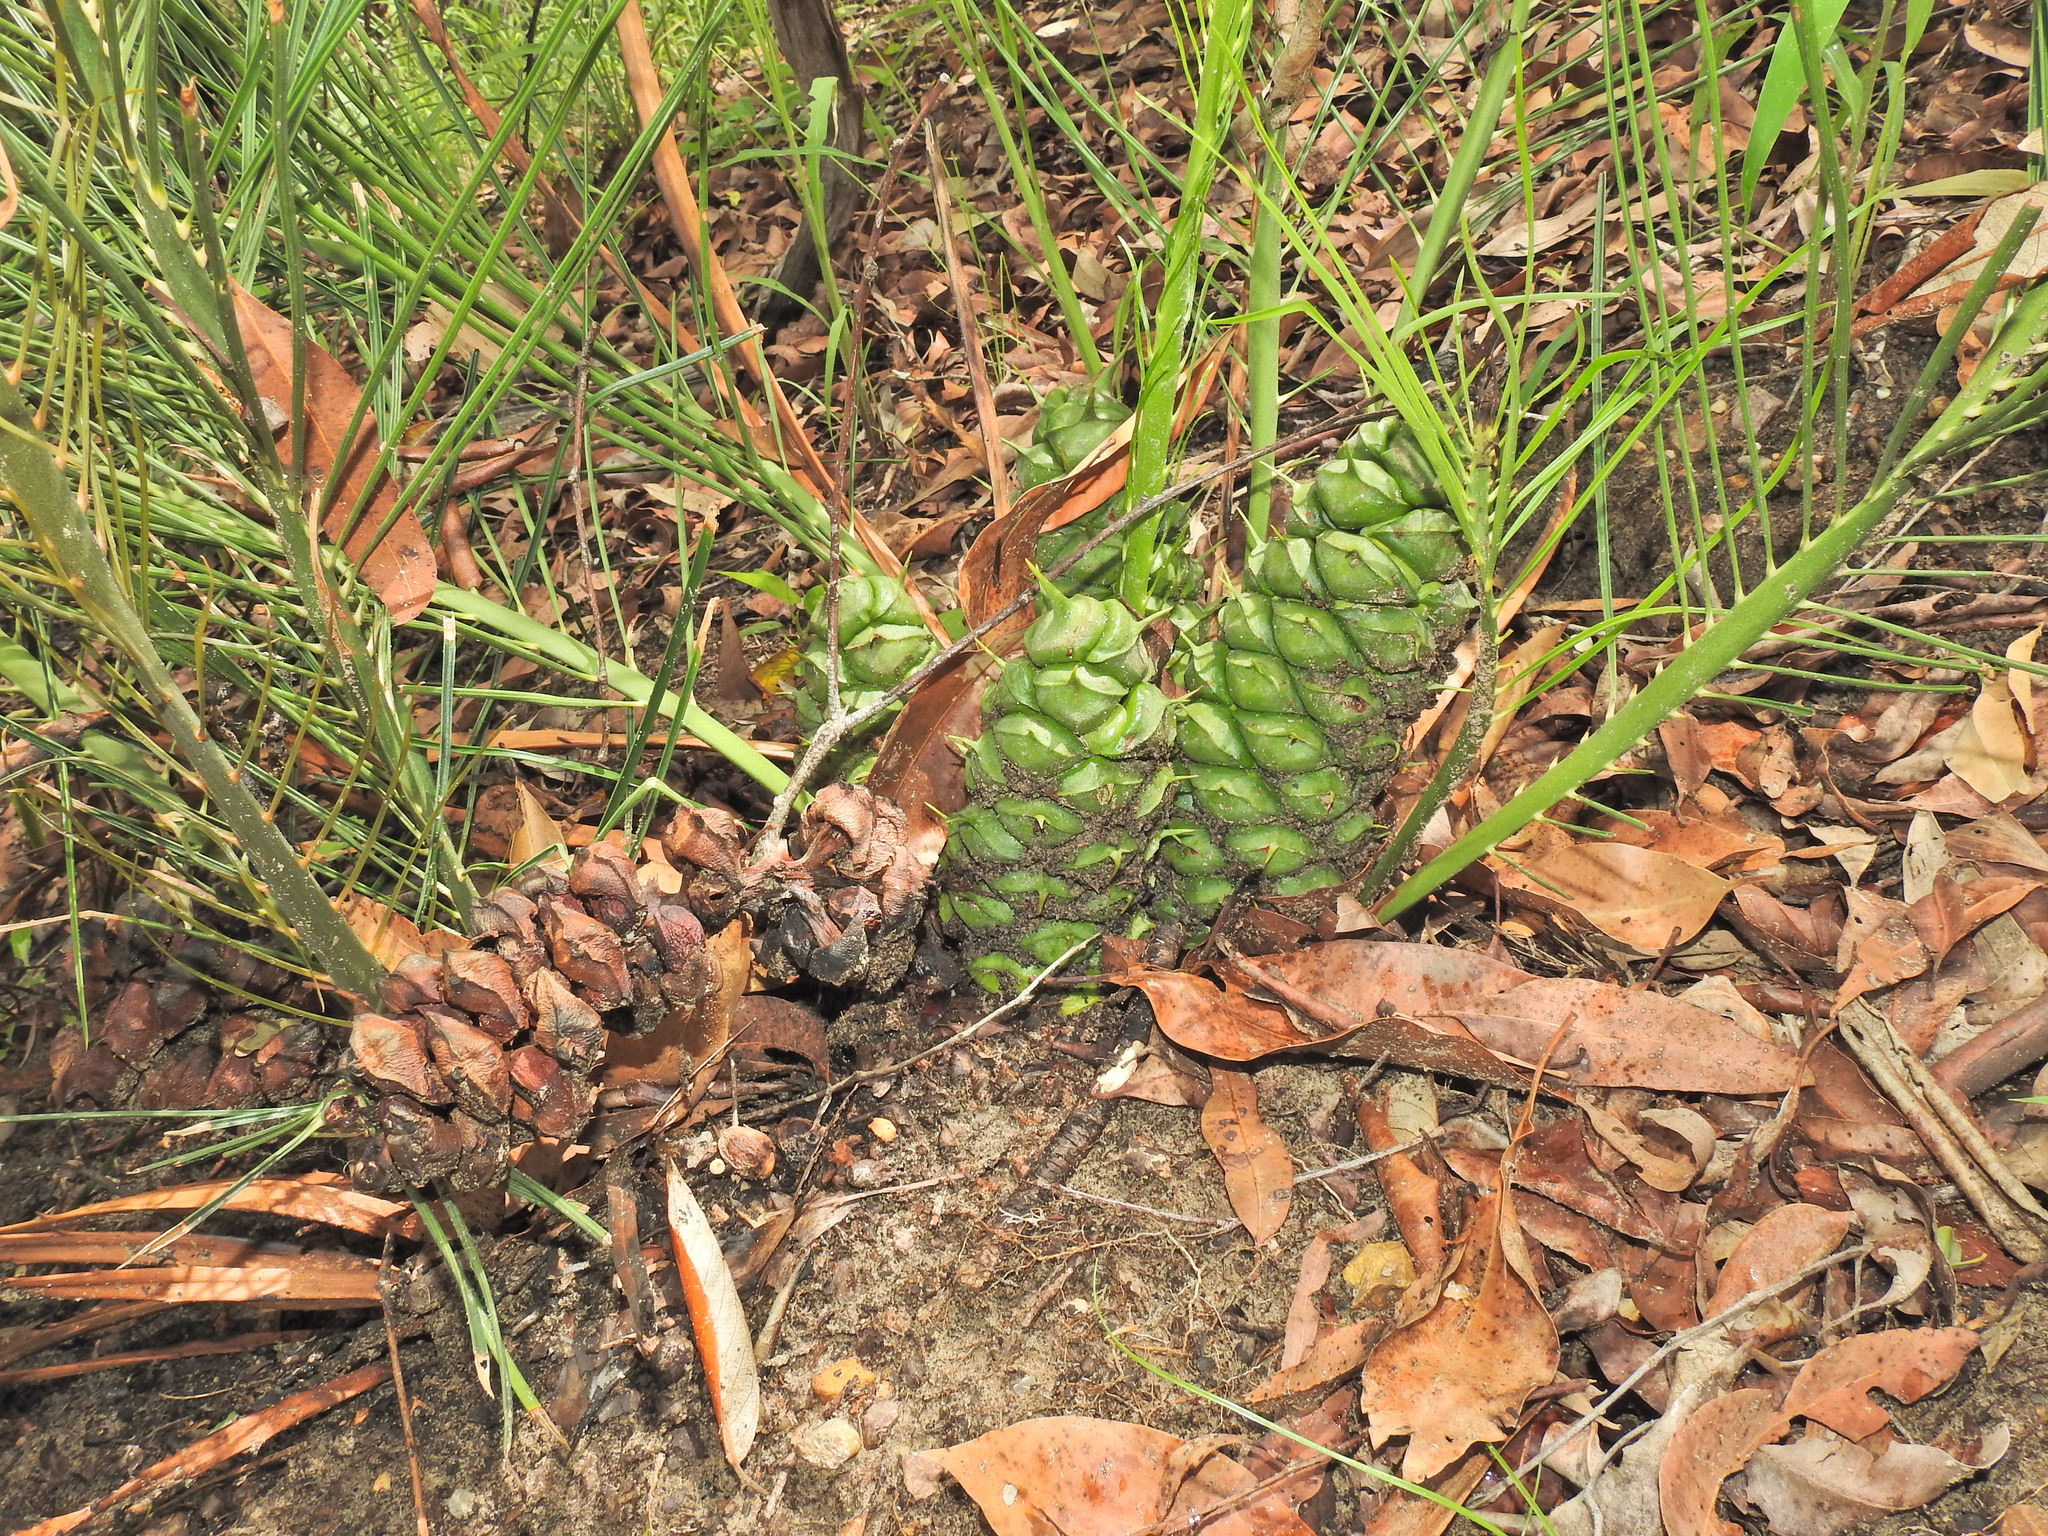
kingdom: Plantae
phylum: Tracheophyta
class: Cycadopsida
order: Cycadales
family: Zamiaceae
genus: Macrozamia
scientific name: Macrozamia pauli-guilielmi
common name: Pineapple zamia
